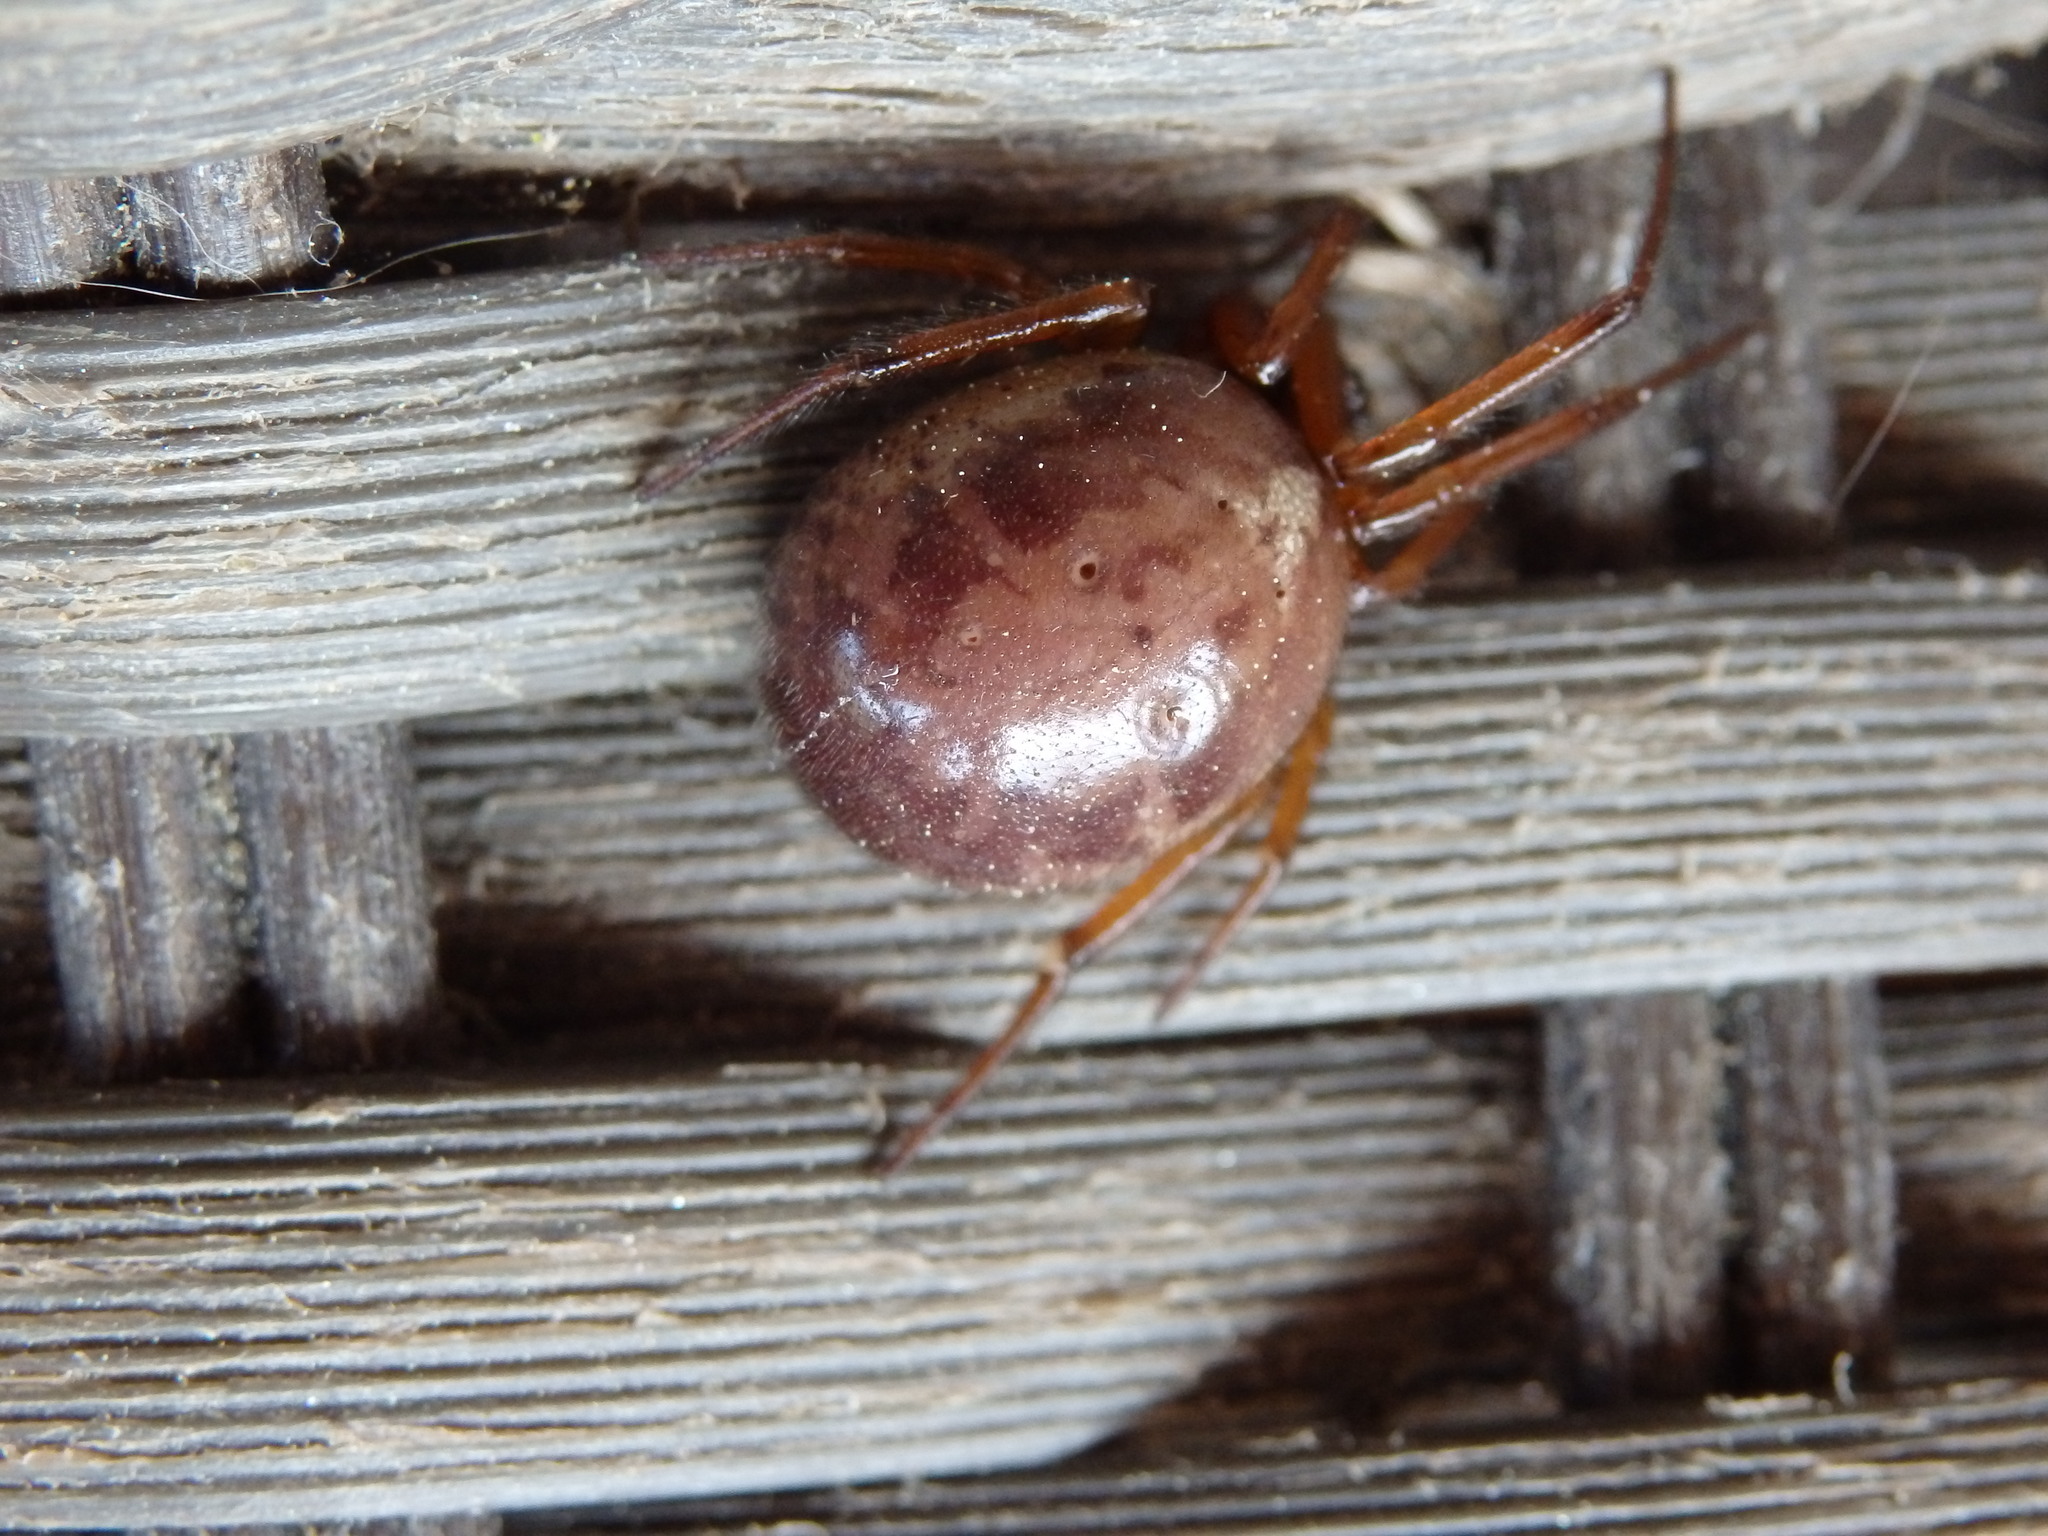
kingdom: Animalia
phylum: Arthropoda
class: Arachnida
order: Araneae
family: Theridiidae
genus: Steatoda
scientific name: Steatoda nobilis
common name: Cobweb weaver
